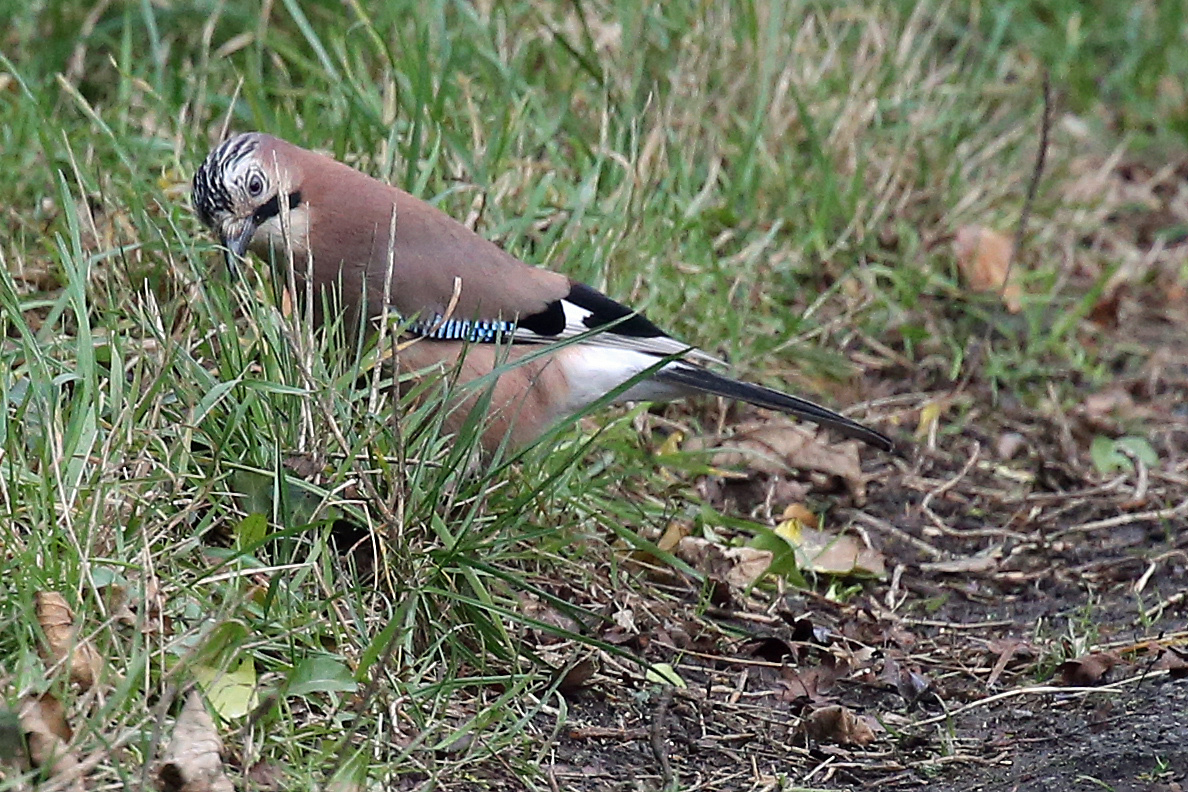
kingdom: Animalia
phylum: Chordata
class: Aves
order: Passeriformes
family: Corvidae
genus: Garrulus
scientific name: Garrulus glandarius
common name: Eurasian jay
